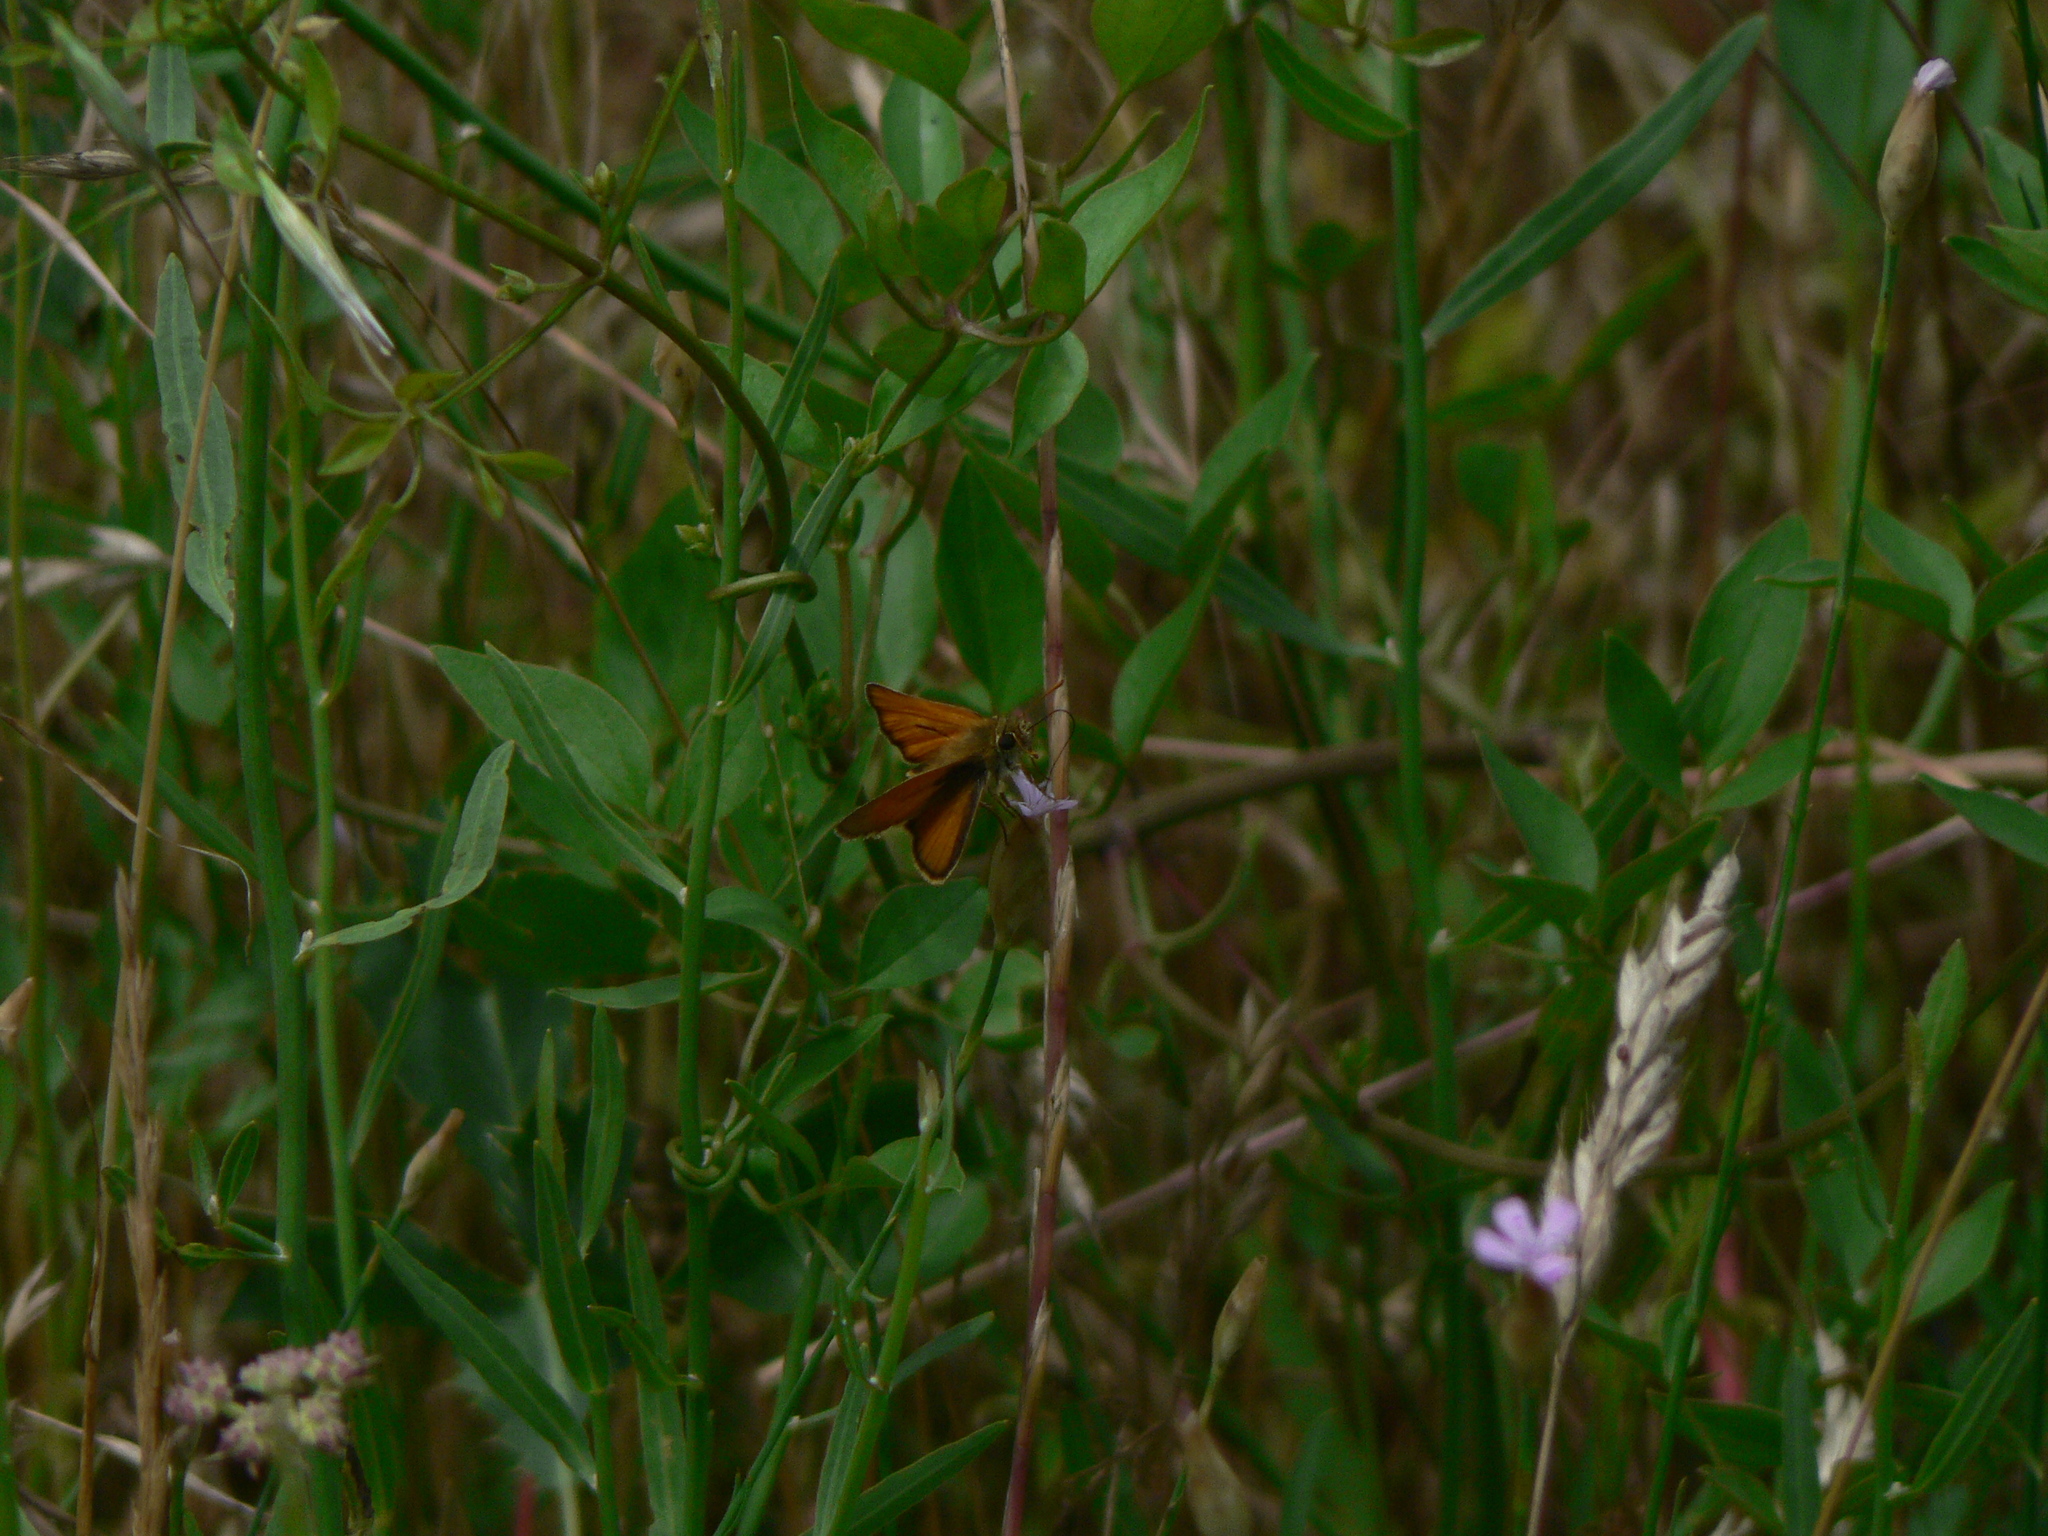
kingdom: Animalia
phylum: Arthropoda
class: Insecta
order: Lepidoptera
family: Hesperiidae
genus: Thymelicus
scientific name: Thymelicus sylvestris
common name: Small skipper
